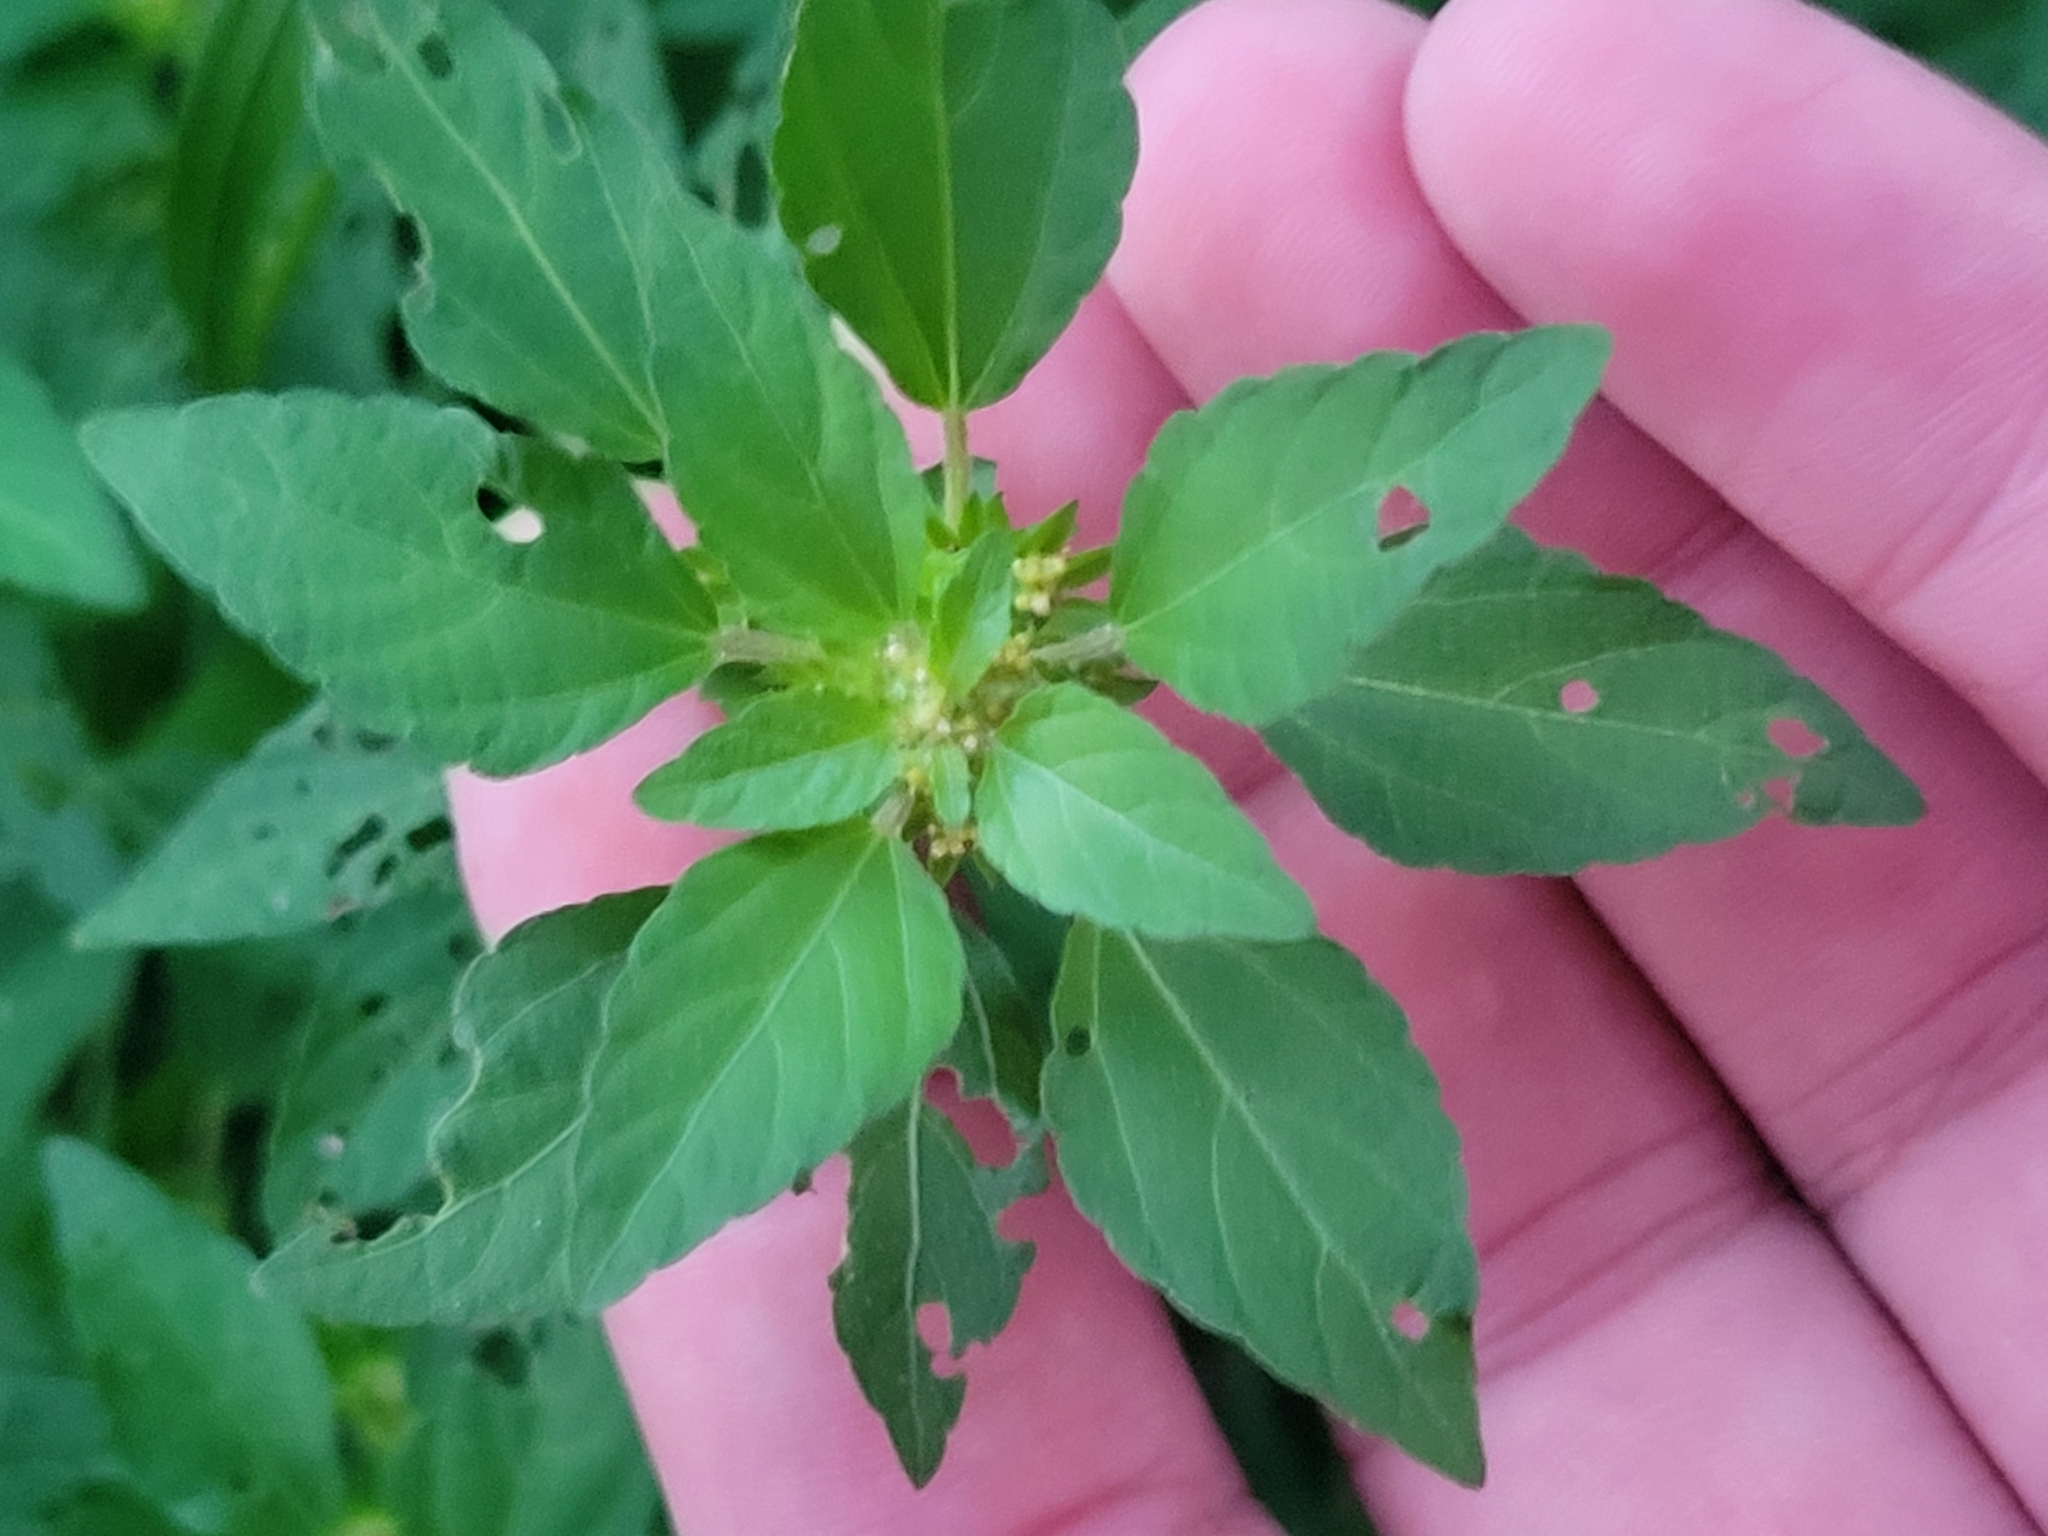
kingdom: Plantae
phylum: Tracheophyta
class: Magnoliopsida
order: Malpighiales
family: Euphorbiaceae
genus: Acalypha
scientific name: Acalypha rhomboidea
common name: Rhombic copperleaf
